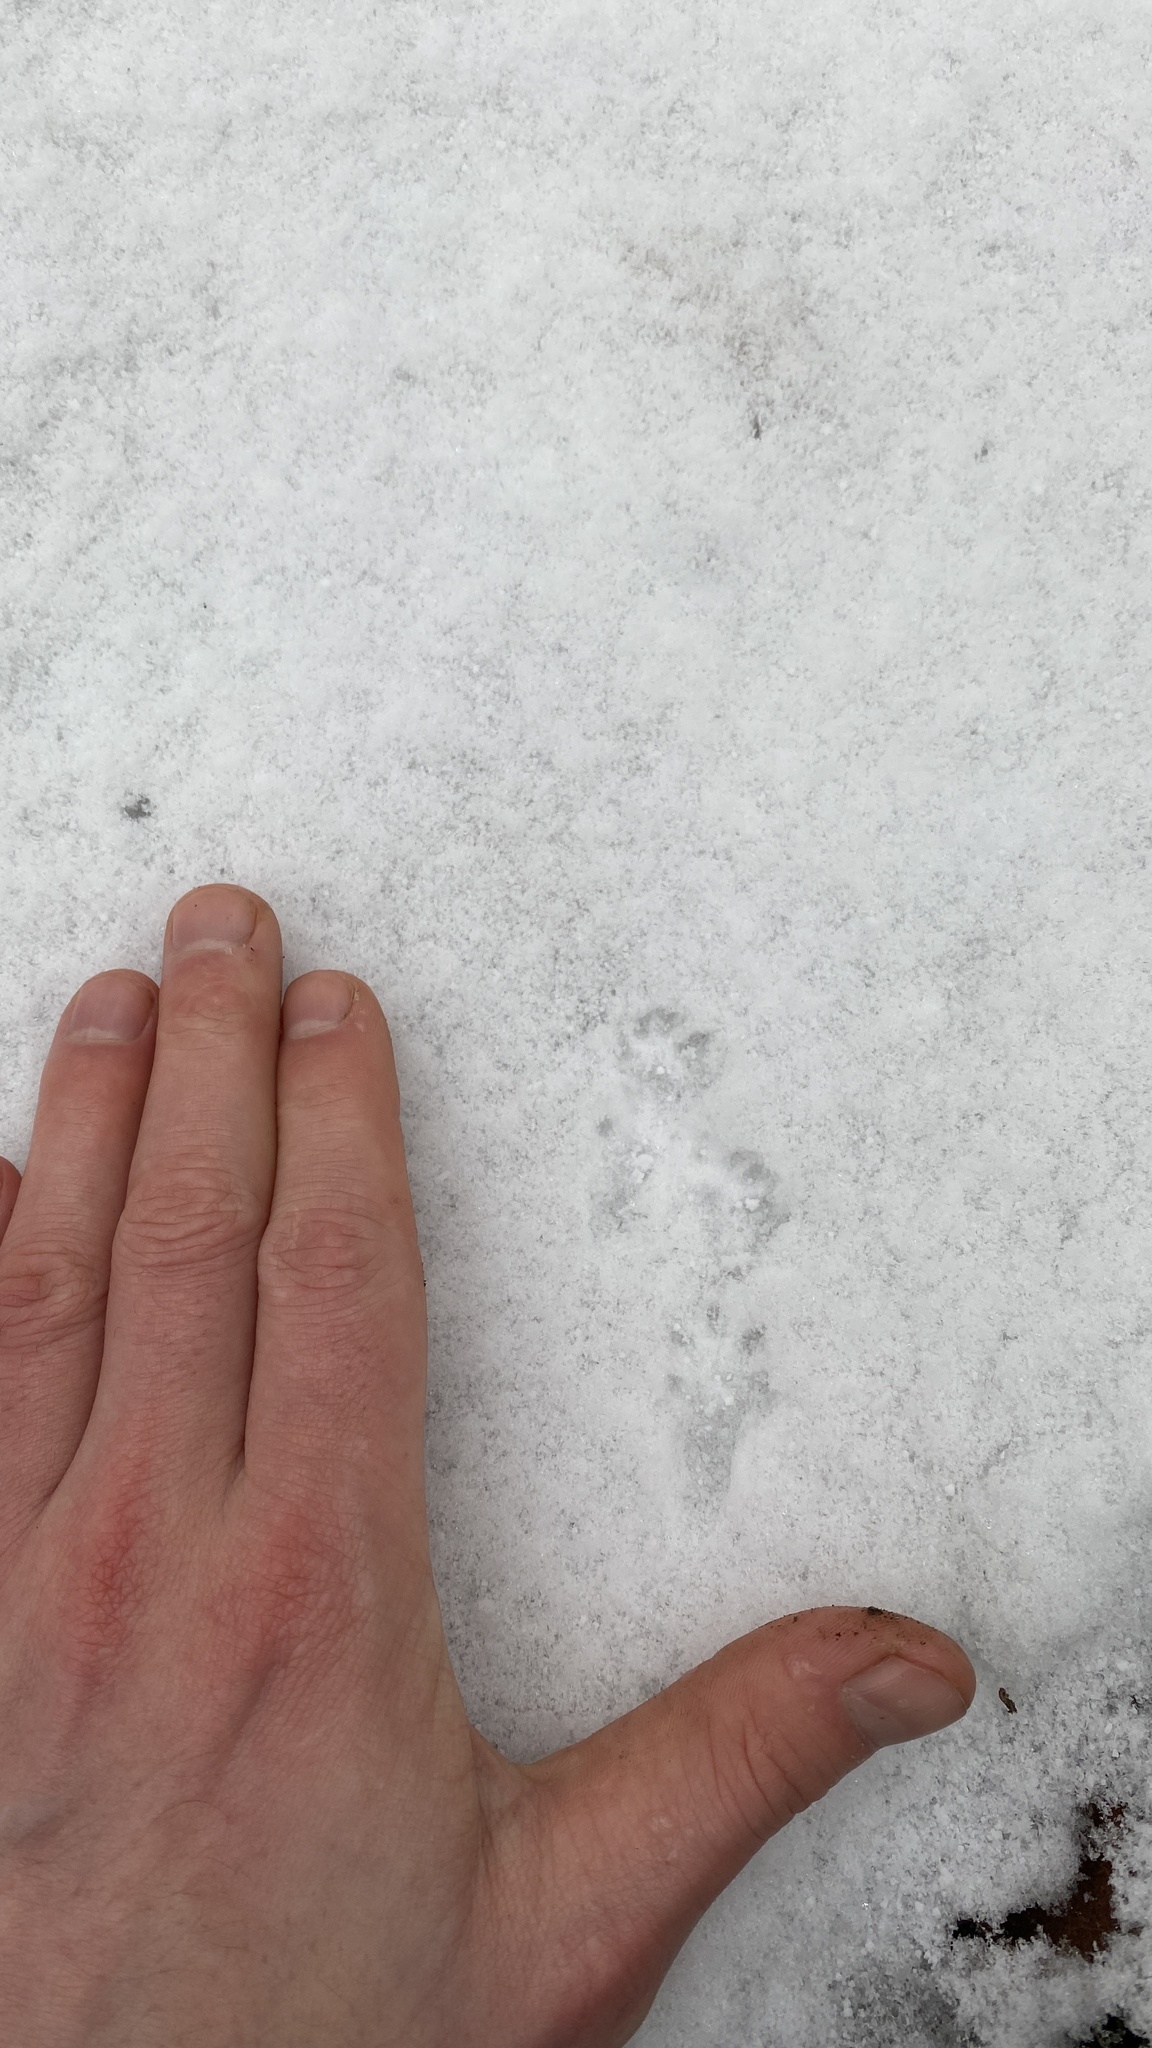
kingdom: Animalia
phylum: Chordata
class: Mammalia
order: Carnivora
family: Mustelidae
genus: Mustela
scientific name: Mustela nivalis
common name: Least weasel
